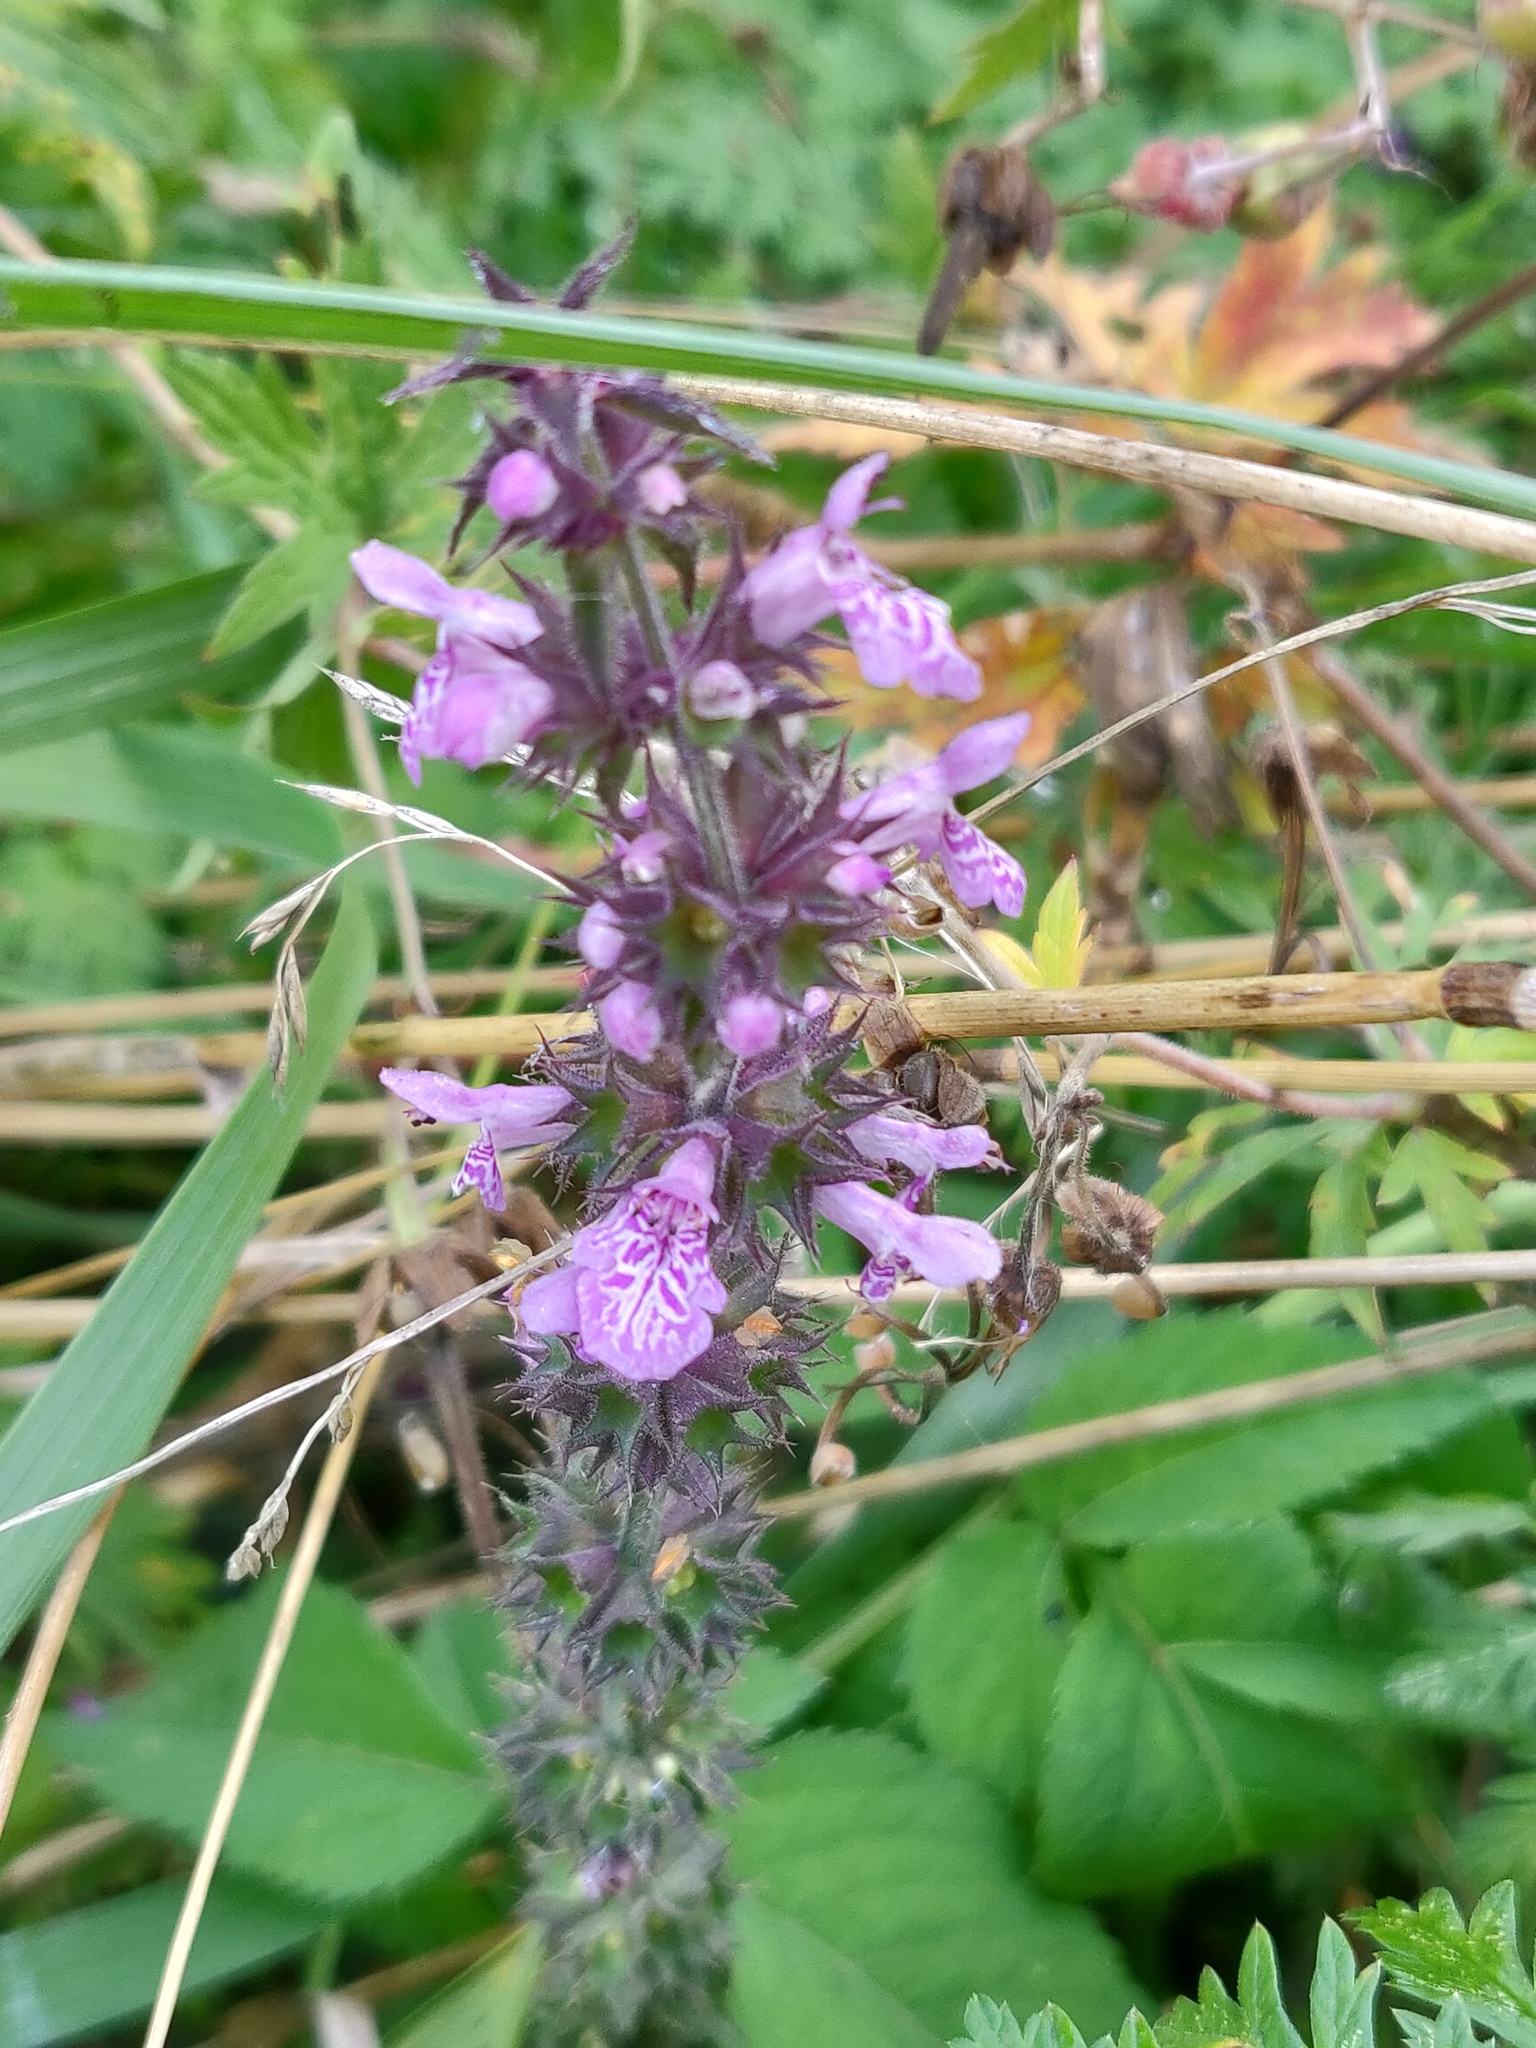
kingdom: Plantae
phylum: Tracheophyta
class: Magnoliopsida
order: Lamiales
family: Lamiaceae
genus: Stachys
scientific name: Stachys palustris
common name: Marsh woundwort
